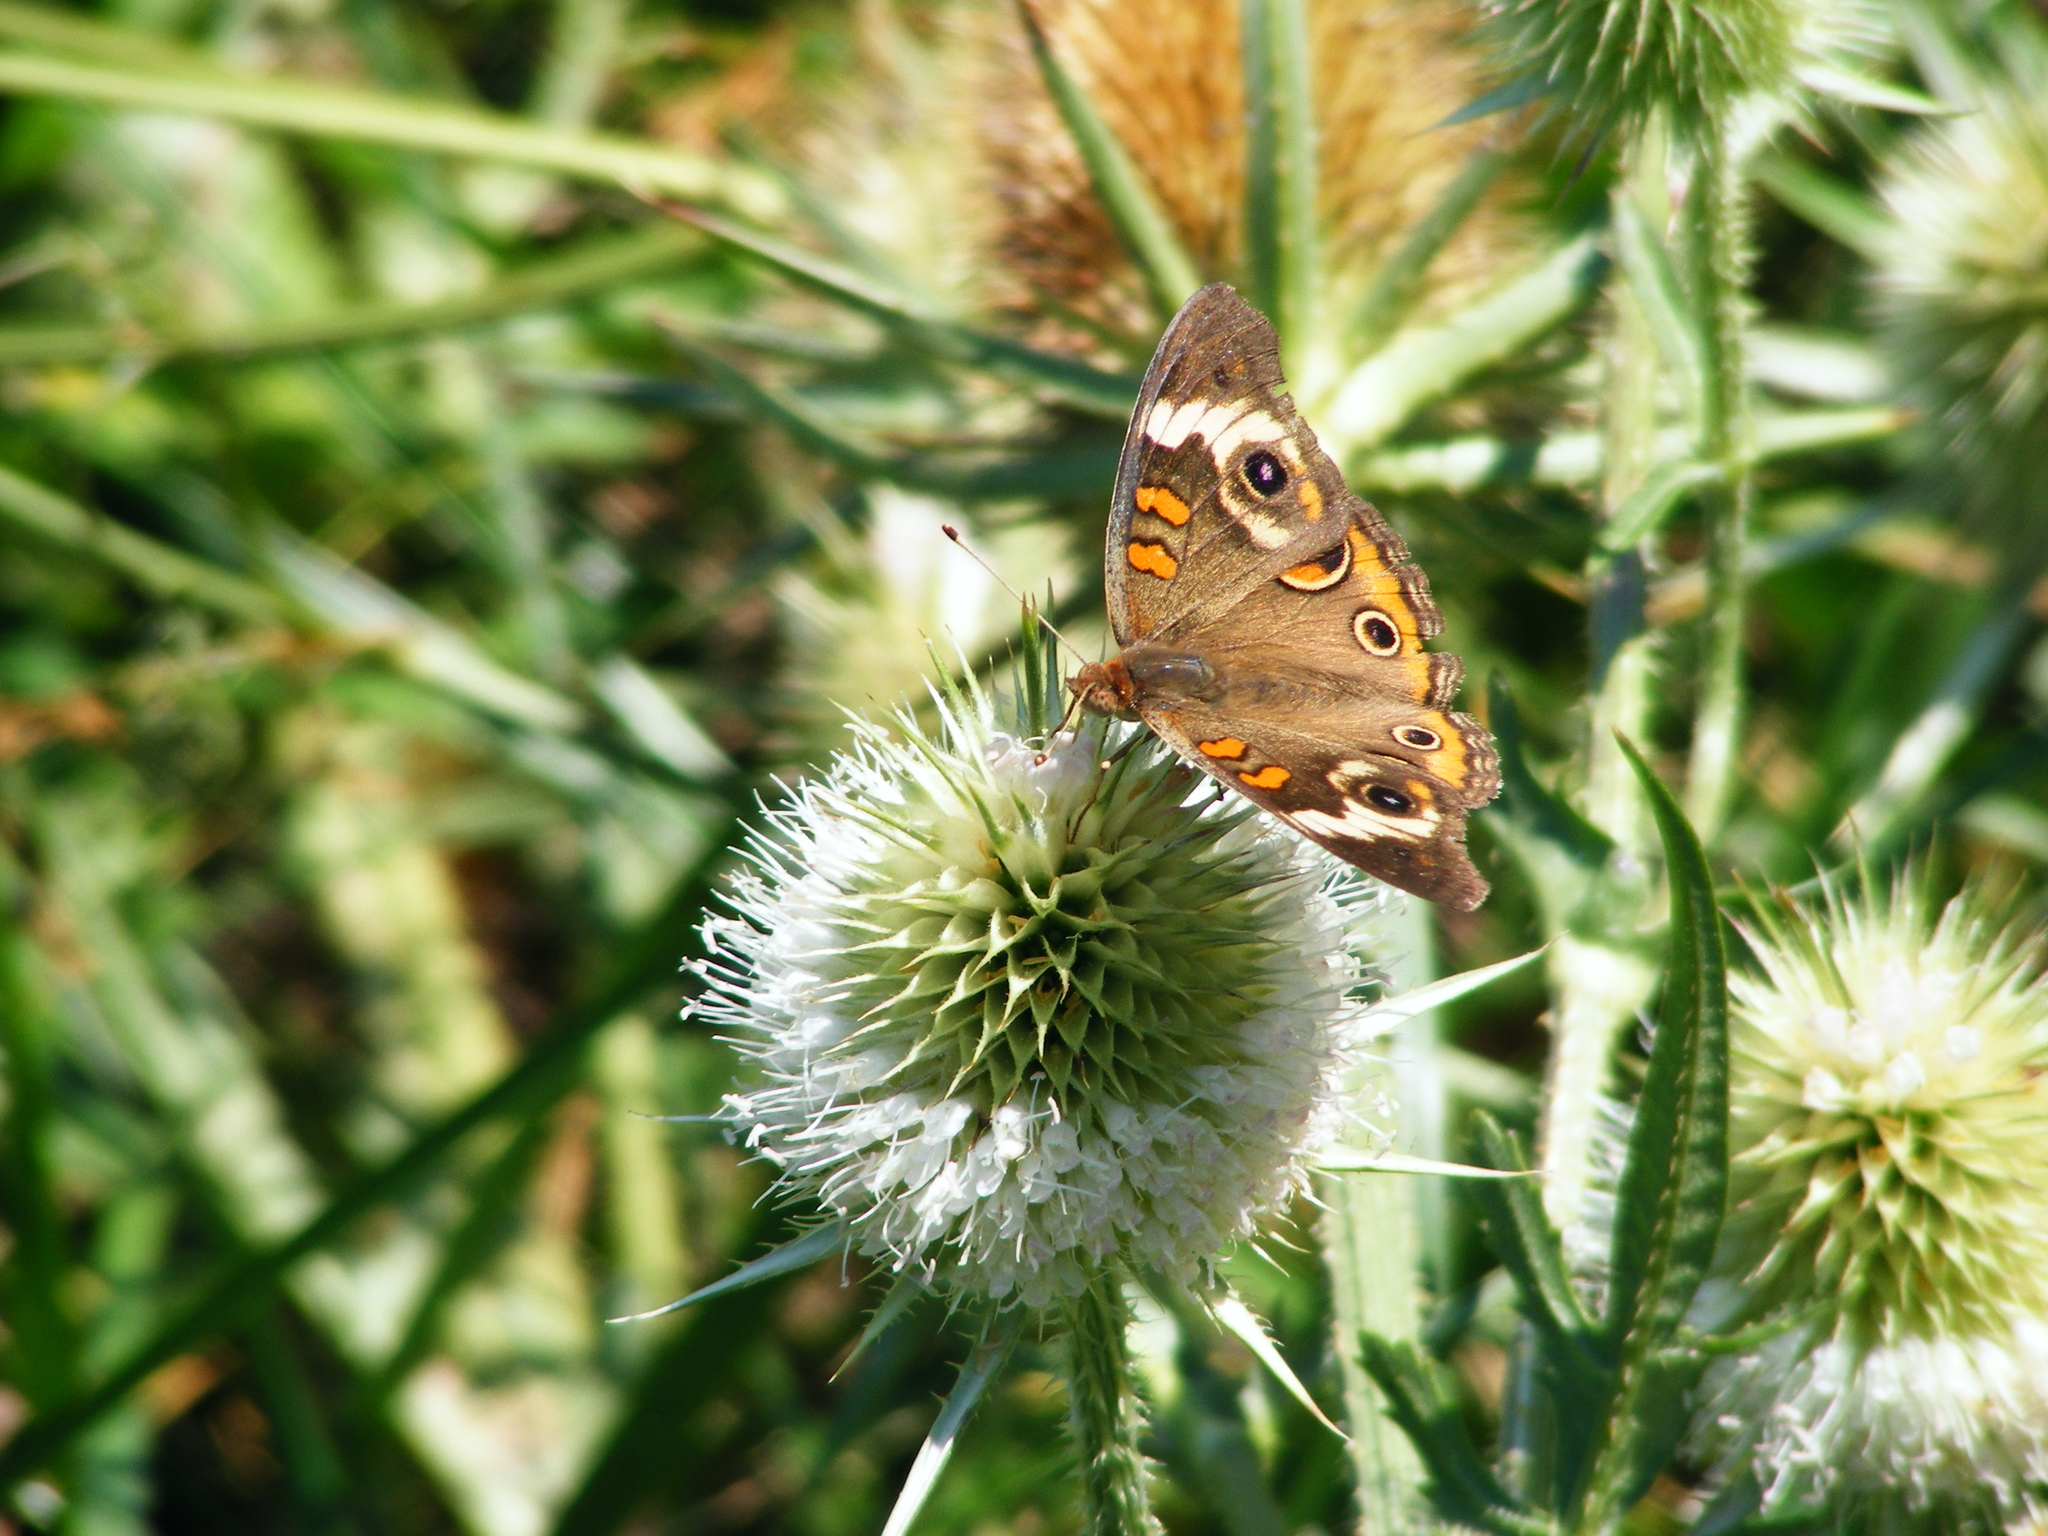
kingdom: Animalia
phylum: Arthropoda
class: Insecta
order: Lepidoptera
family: Nymphalidae
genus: Junonia
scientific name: Junonia coenia
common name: Common buckeye
